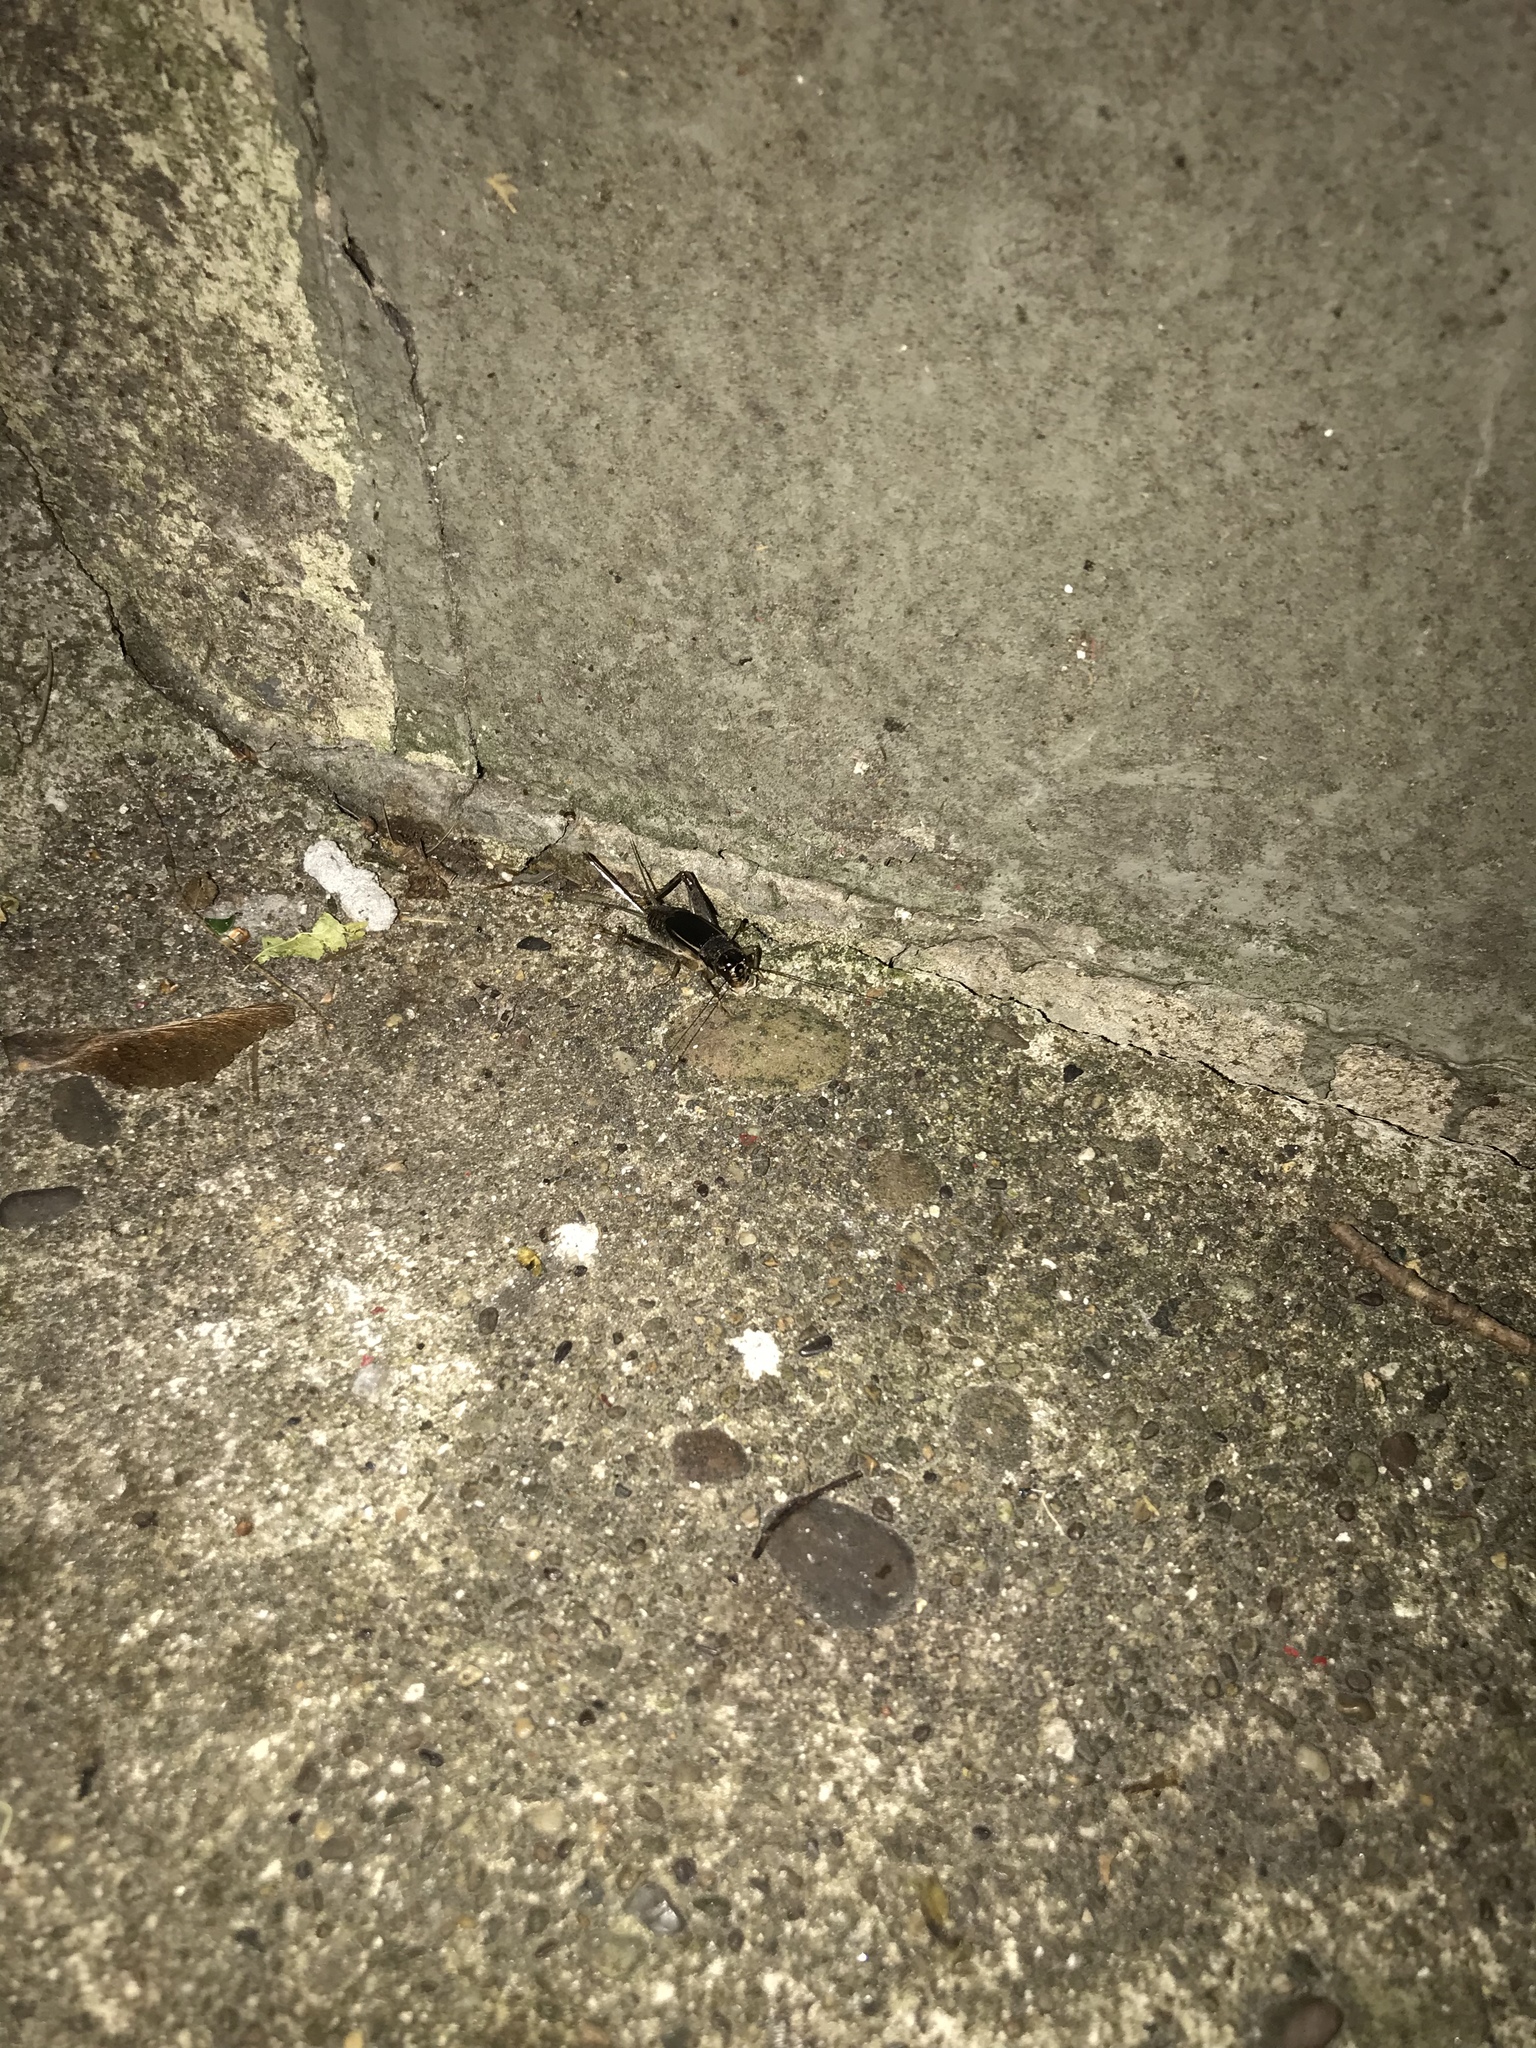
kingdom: Animalia
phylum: Arthropoda
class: Insecta
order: Orthoptera
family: Gryllidae
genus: Velarifictorus
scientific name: Velarifictorus micado
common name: Japanese burrowing cricket
